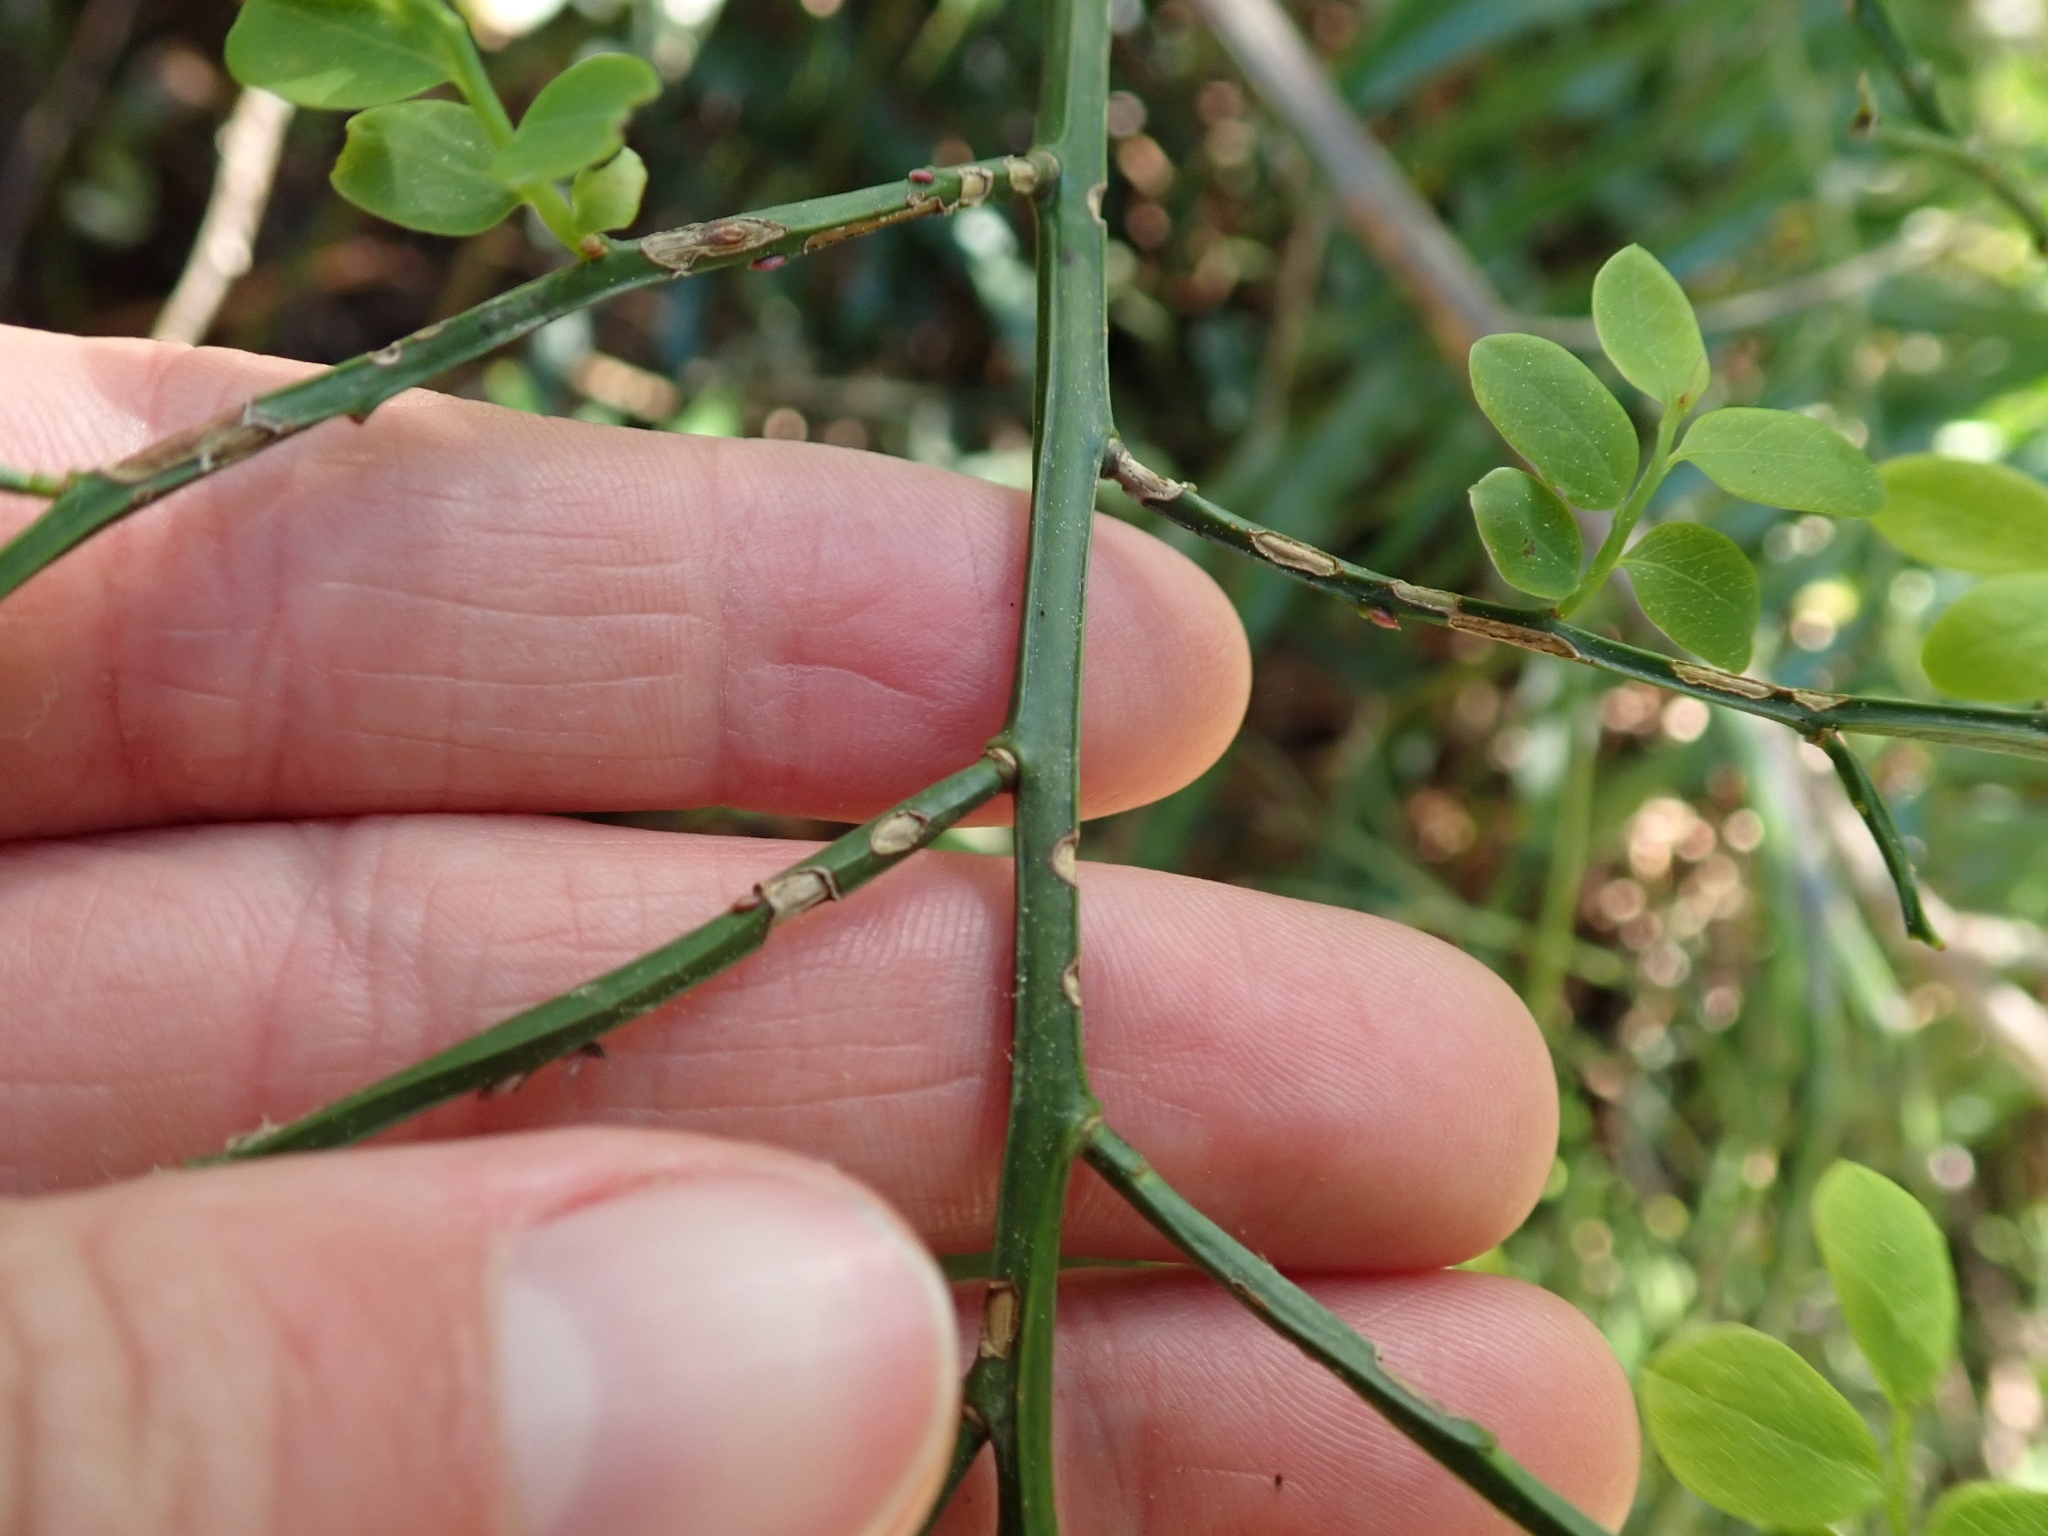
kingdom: Plantae
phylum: Tracheophyta
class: Magnoliopsida
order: Ericales
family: Ericaceae
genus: Vaccinium
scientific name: Vaccinium parvifolium
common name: Red-huckleberry
